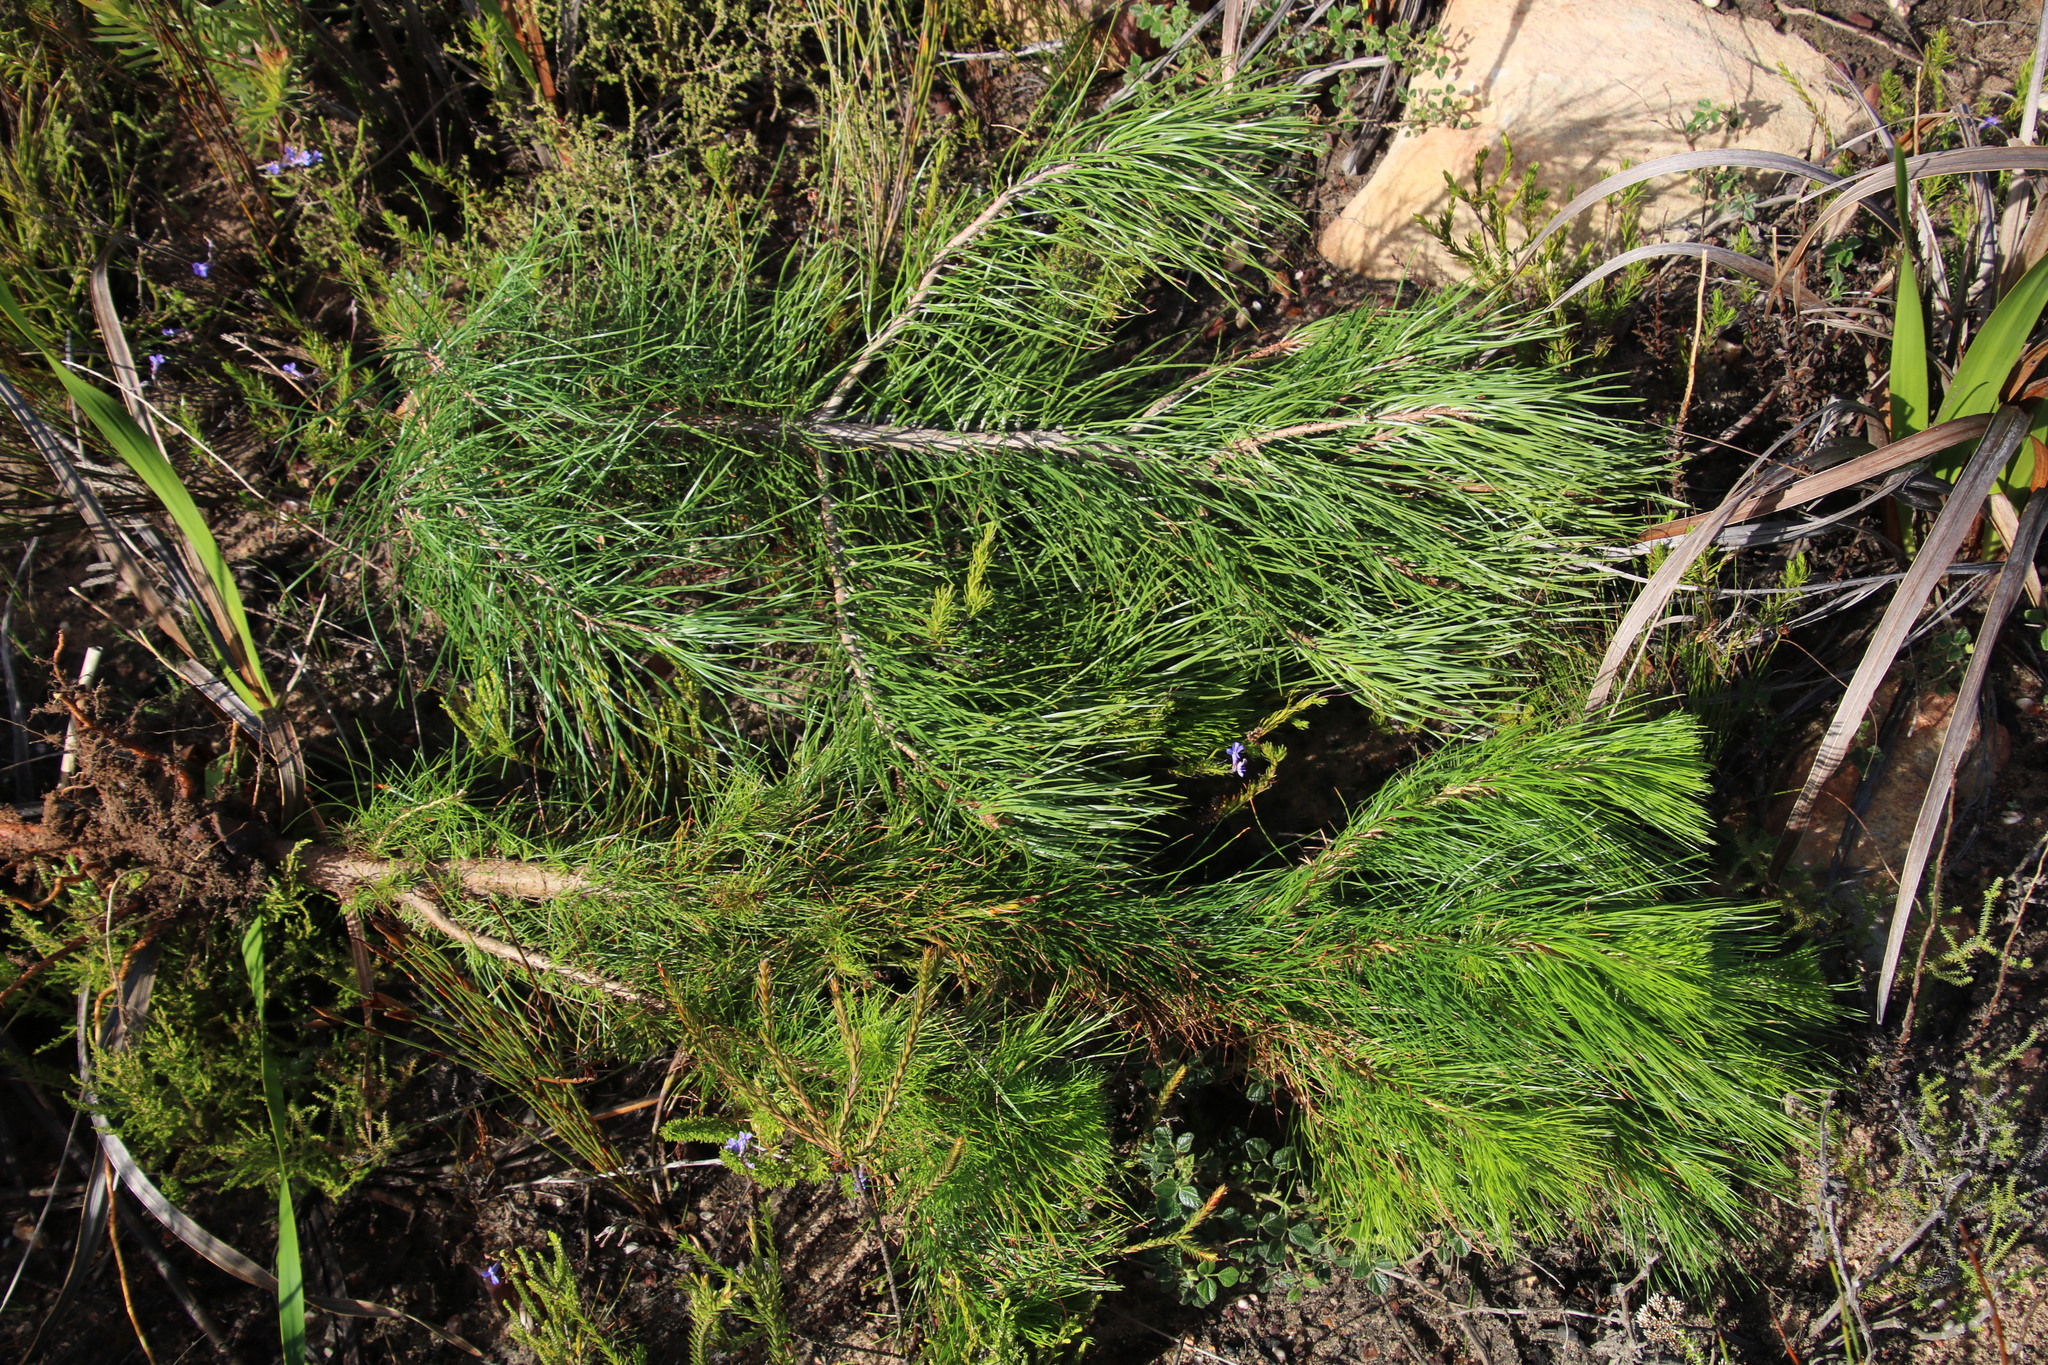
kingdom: Plantae
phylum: Tracheophyta
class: Pinopsida
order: Pinales
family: Pinaceae
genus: Pinus
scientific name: Pinus pinaster
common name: Maritime pine
